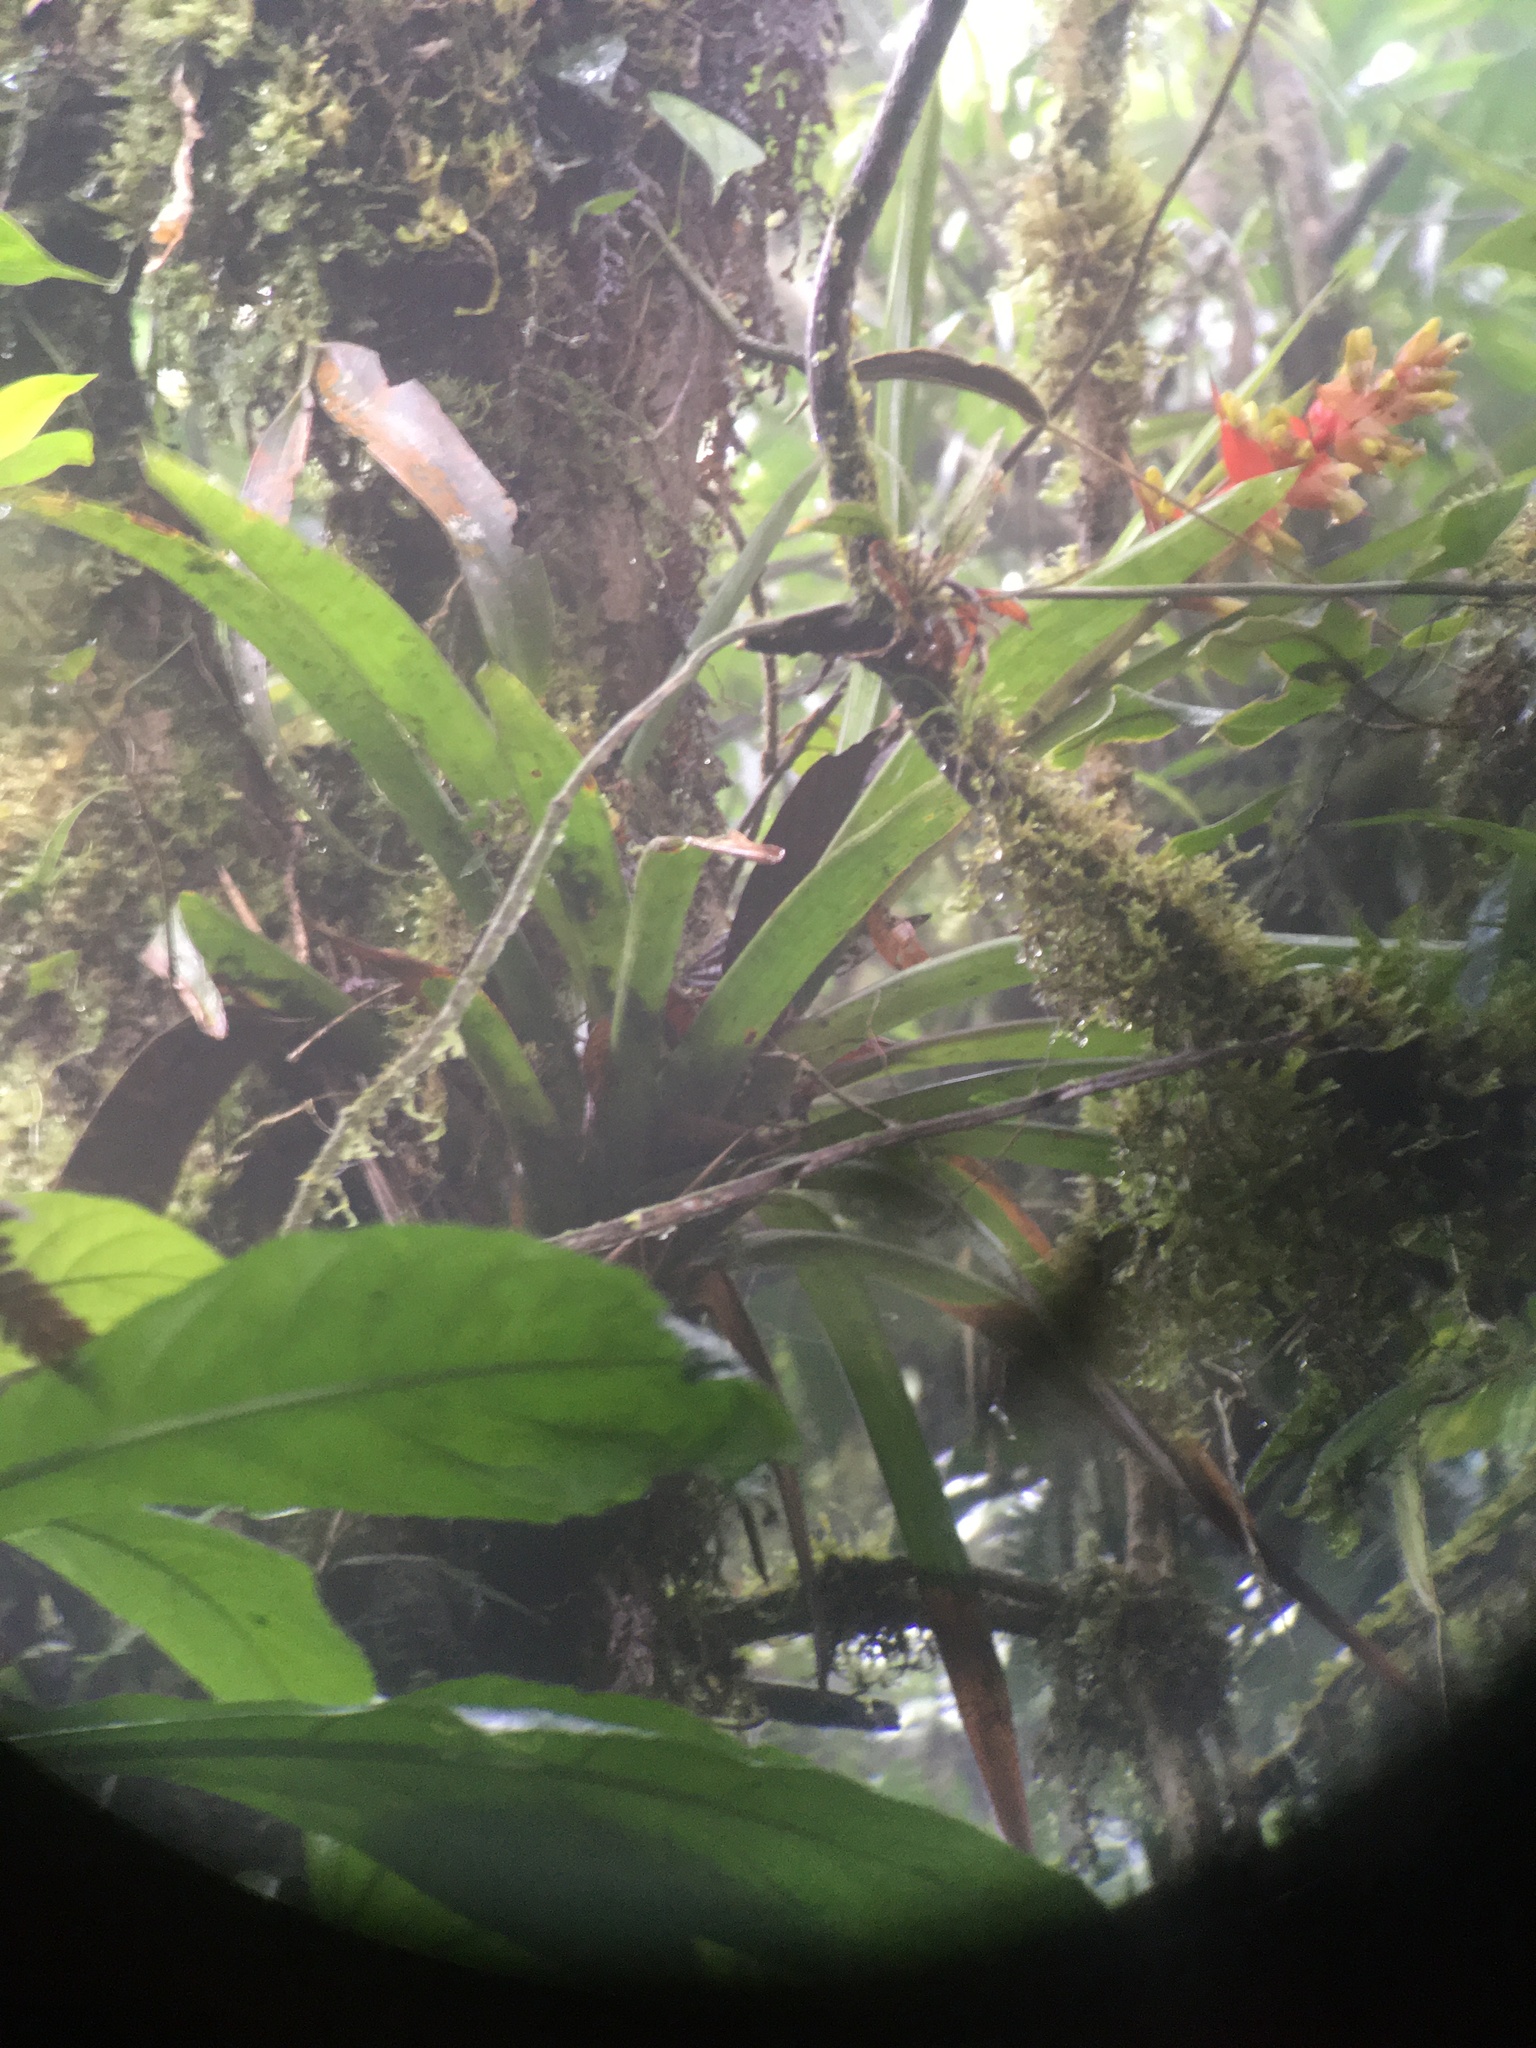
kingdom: Plantae
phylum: Tracheophyta
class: Liliopsida
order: Poales
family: Bromeliaceae
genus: Guzmania
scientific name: Guzmania donnellsmithii
